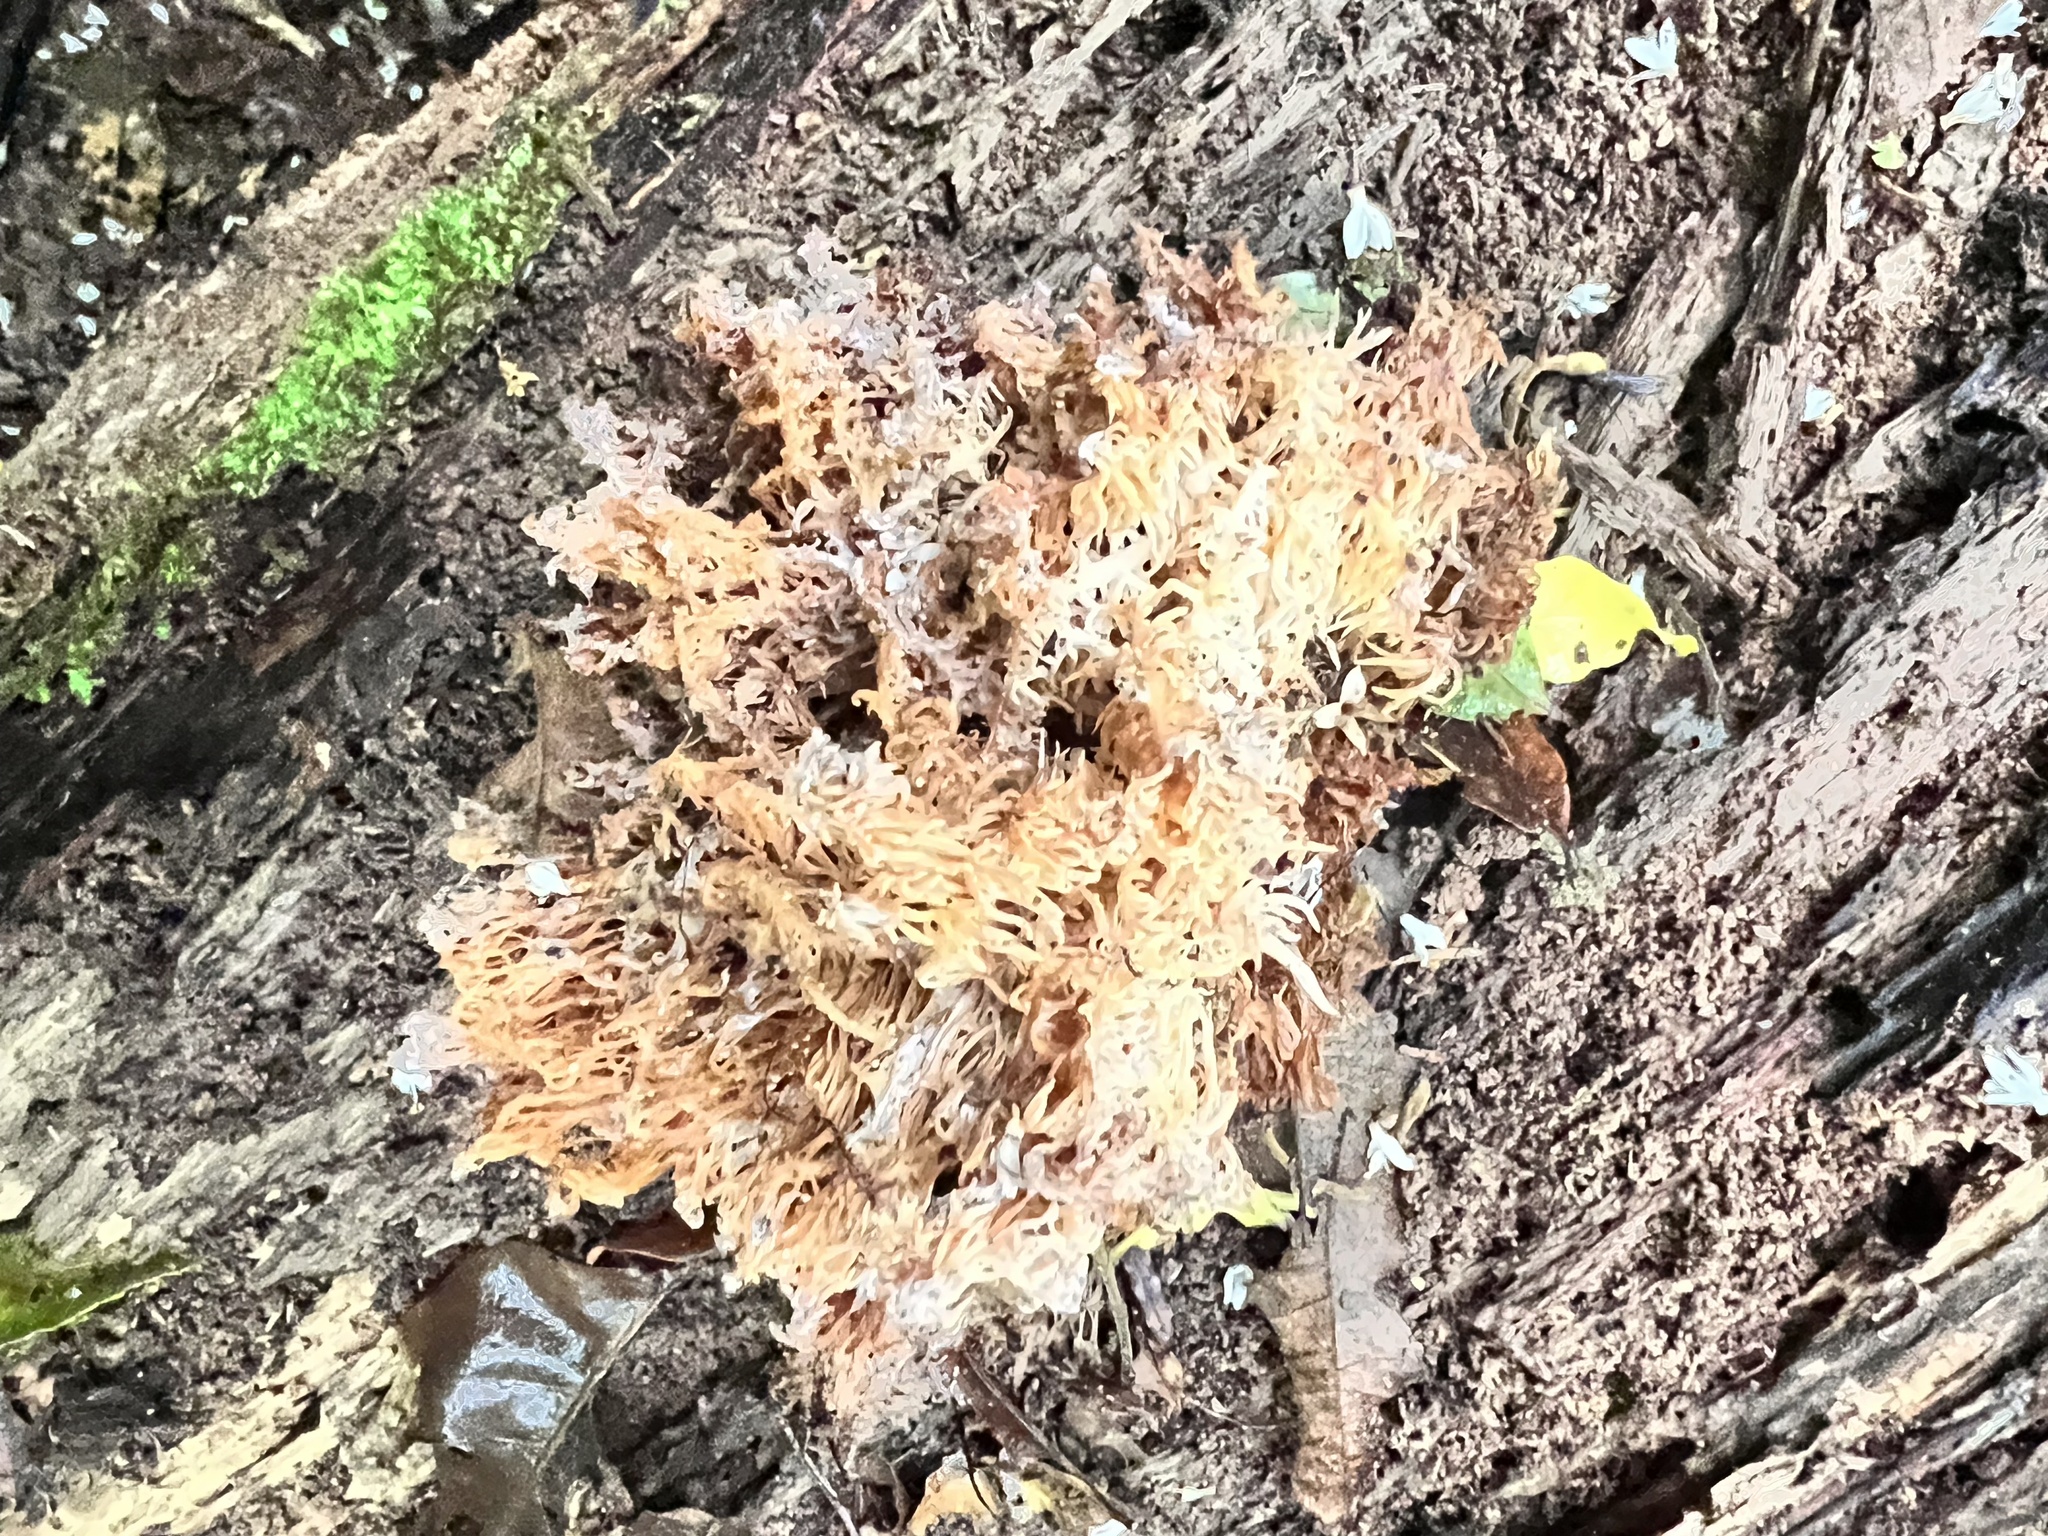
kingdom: Fungi
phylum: Basidiomycota
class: Agaricomycetes
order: Russulales
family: Hericiaceae
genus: Hericium
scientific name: Hericium novae-zealandiae
